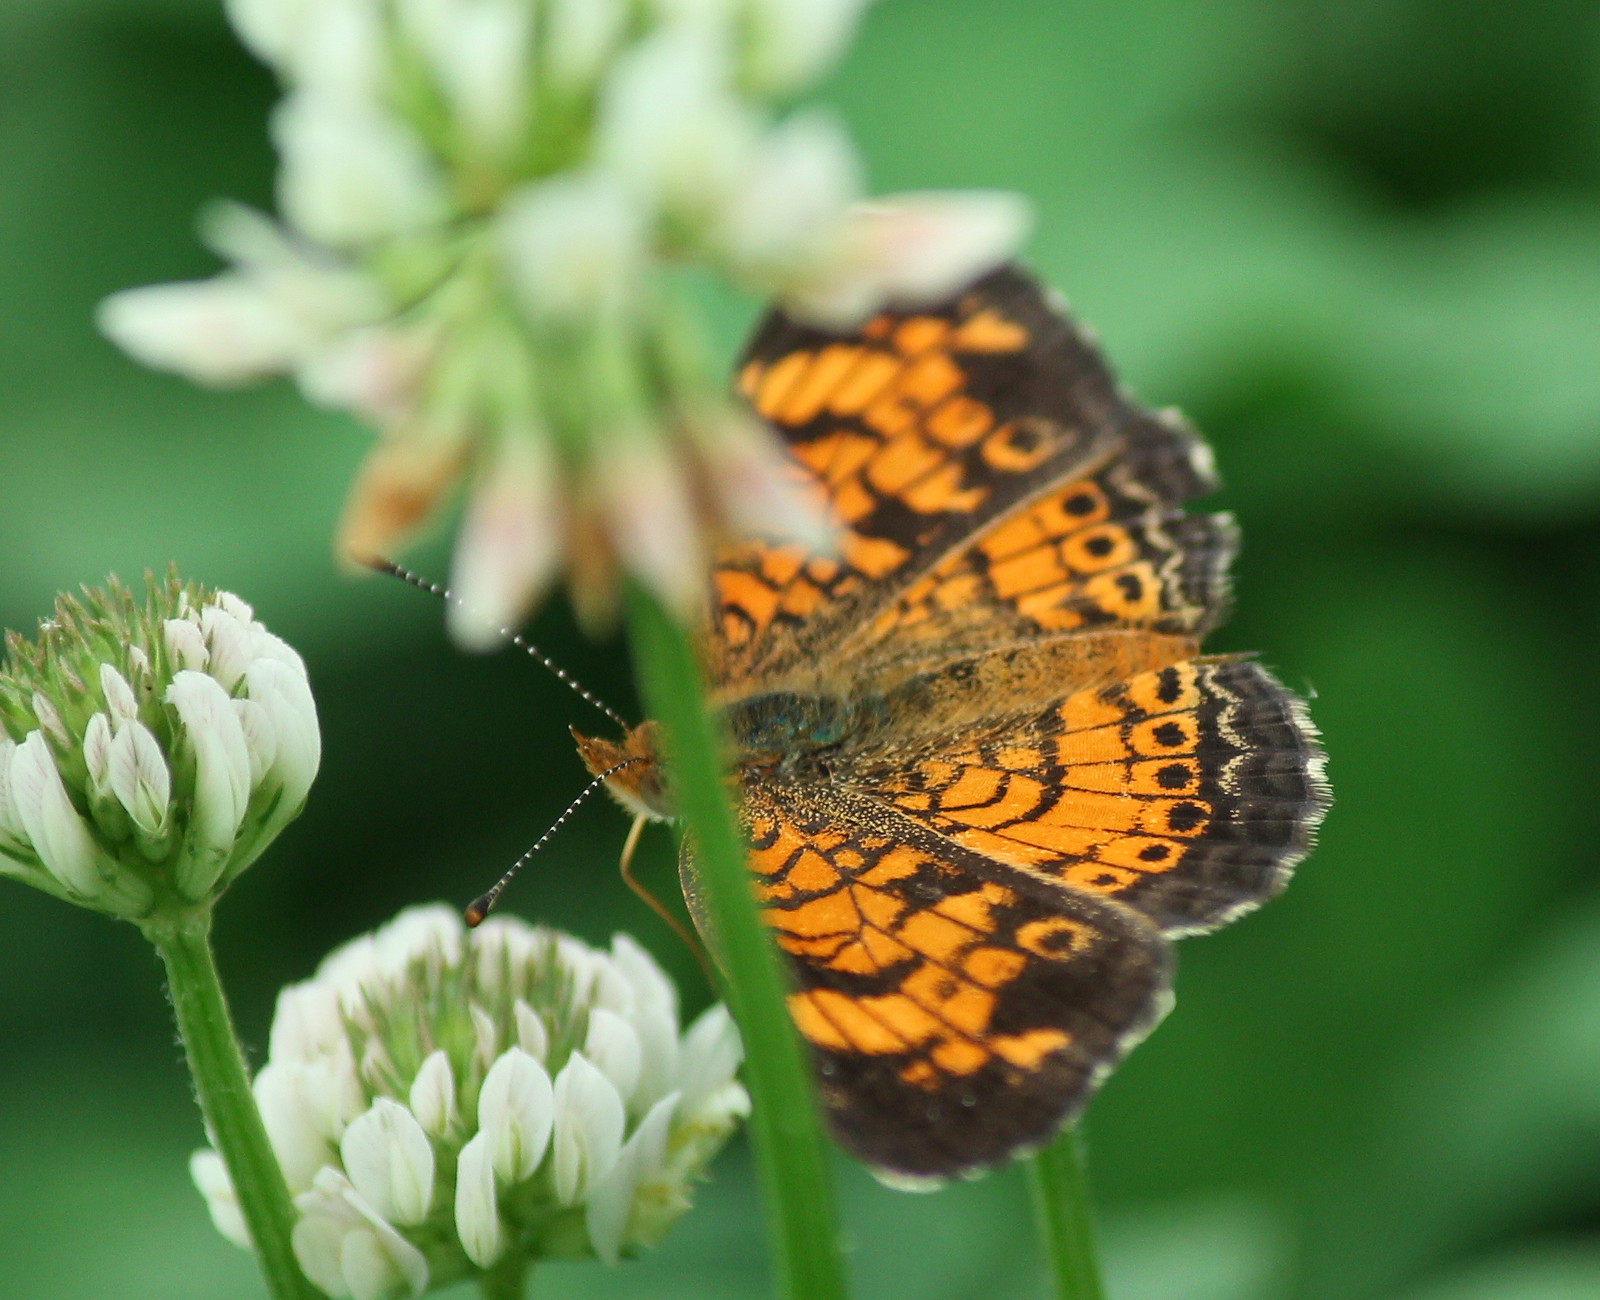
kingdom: Animalia
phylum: Arthropoda
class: Insecta
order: Lepidoptera
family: Nymphalidae
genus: Phyciodes
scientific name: Phyciodes tharos
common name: Pearl crescent
